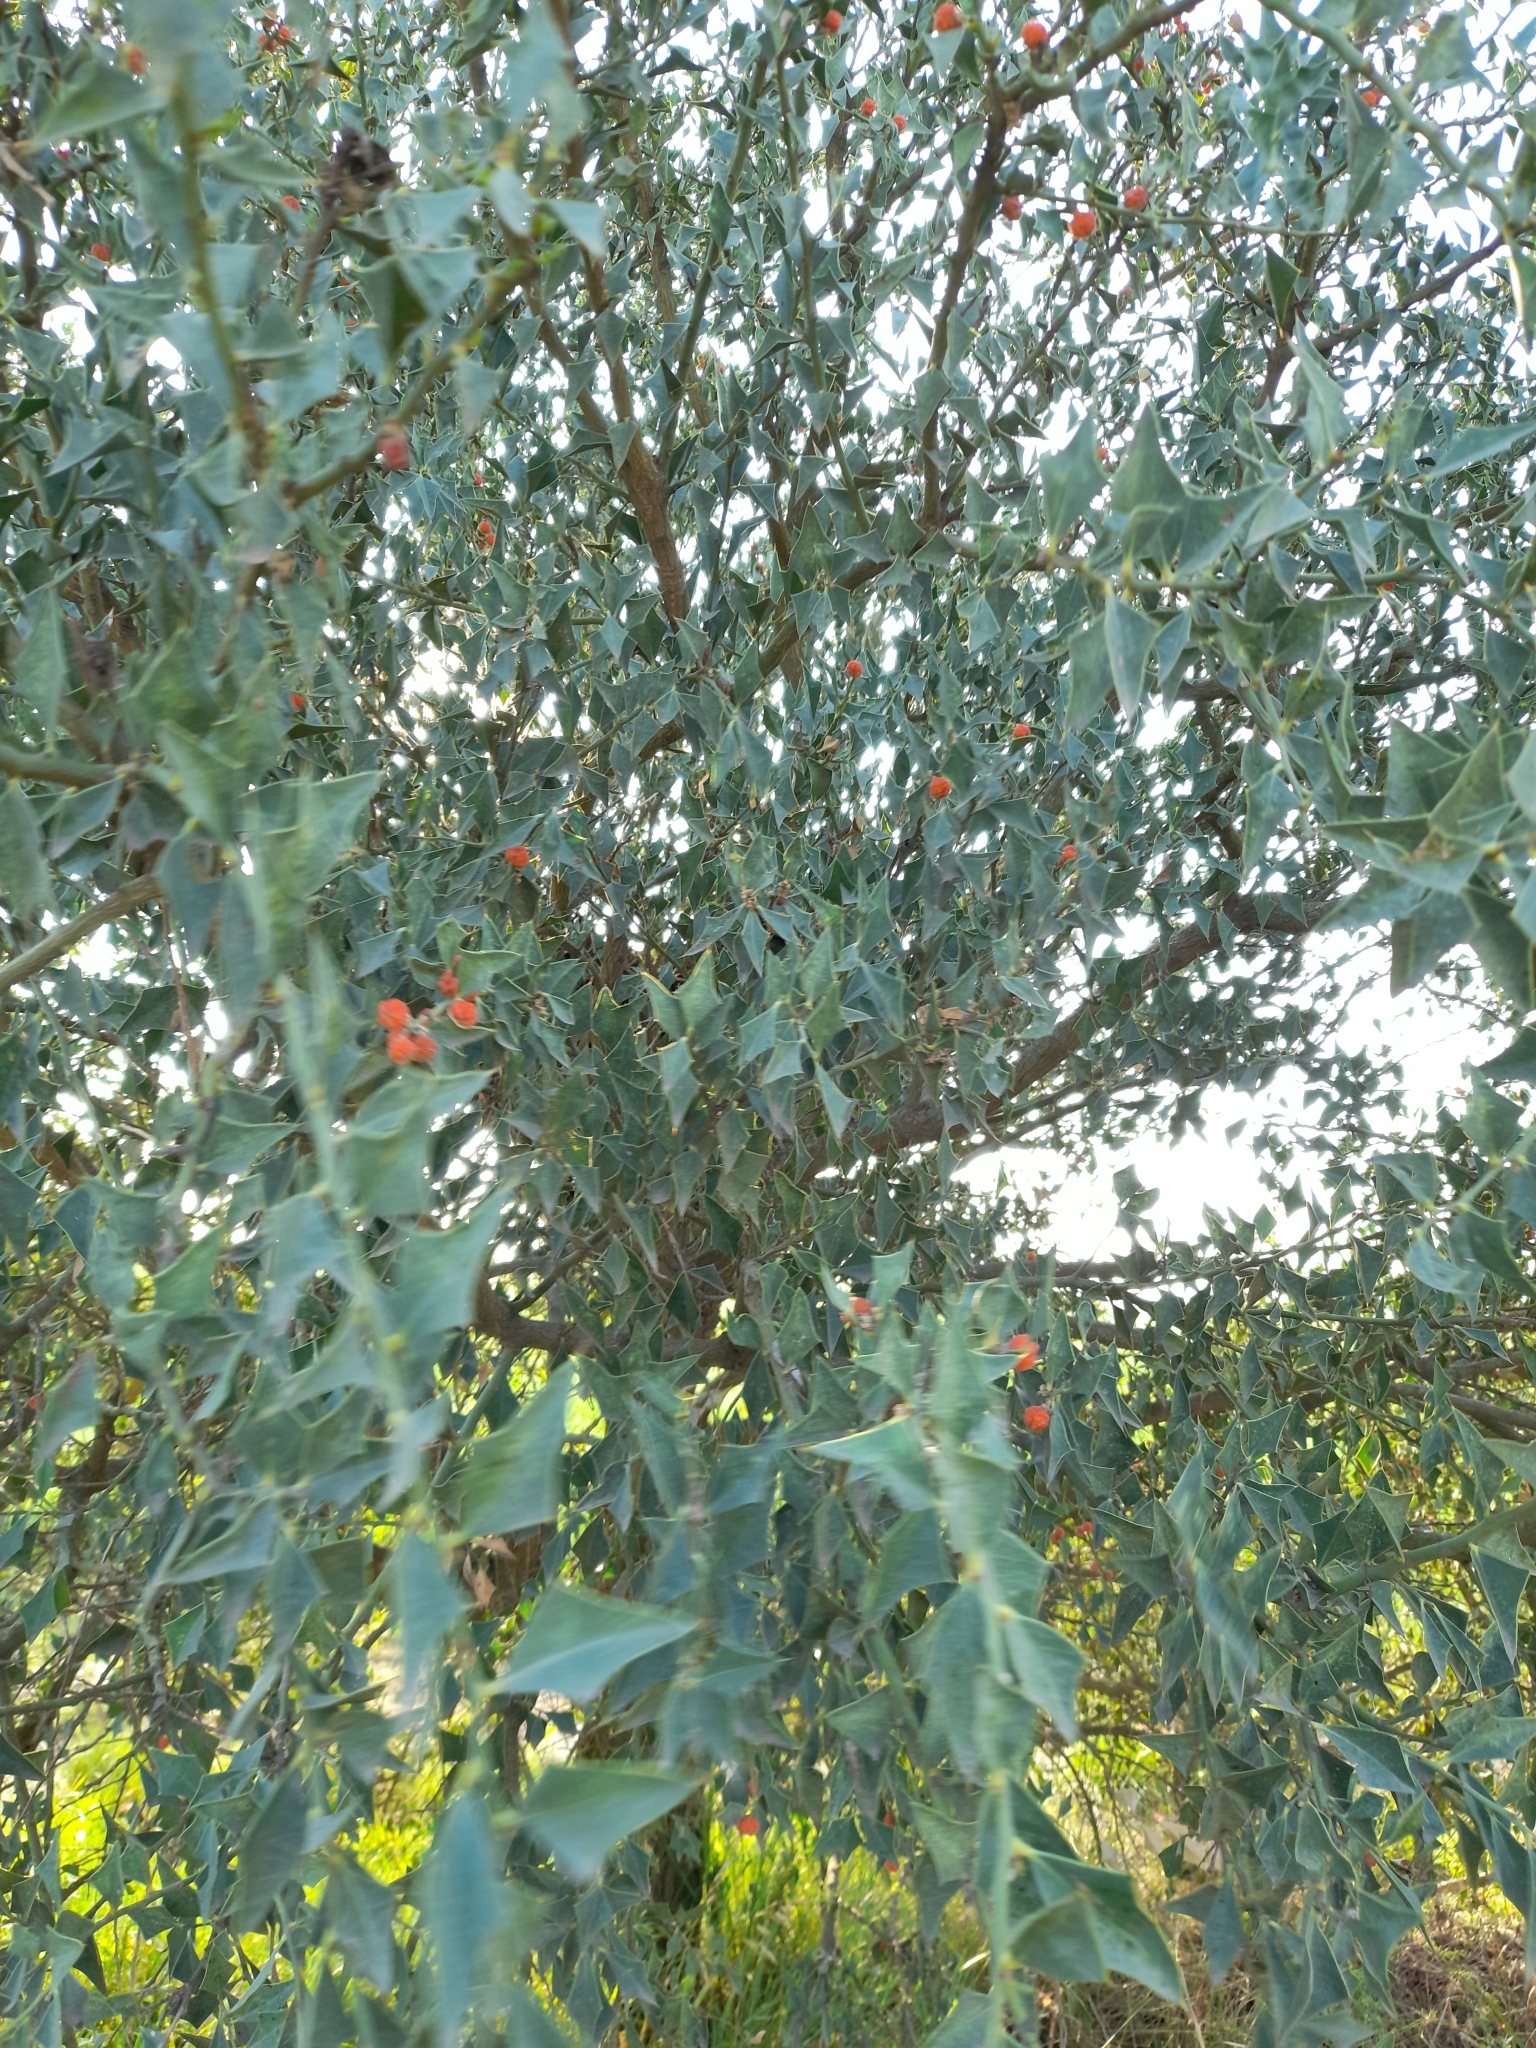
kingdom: Plantae
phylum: Tracheophyta
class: Magnoliopsida
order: Santalales
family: Cervantesiaceae
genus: Jodina
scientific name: Jodina rhombifolia
